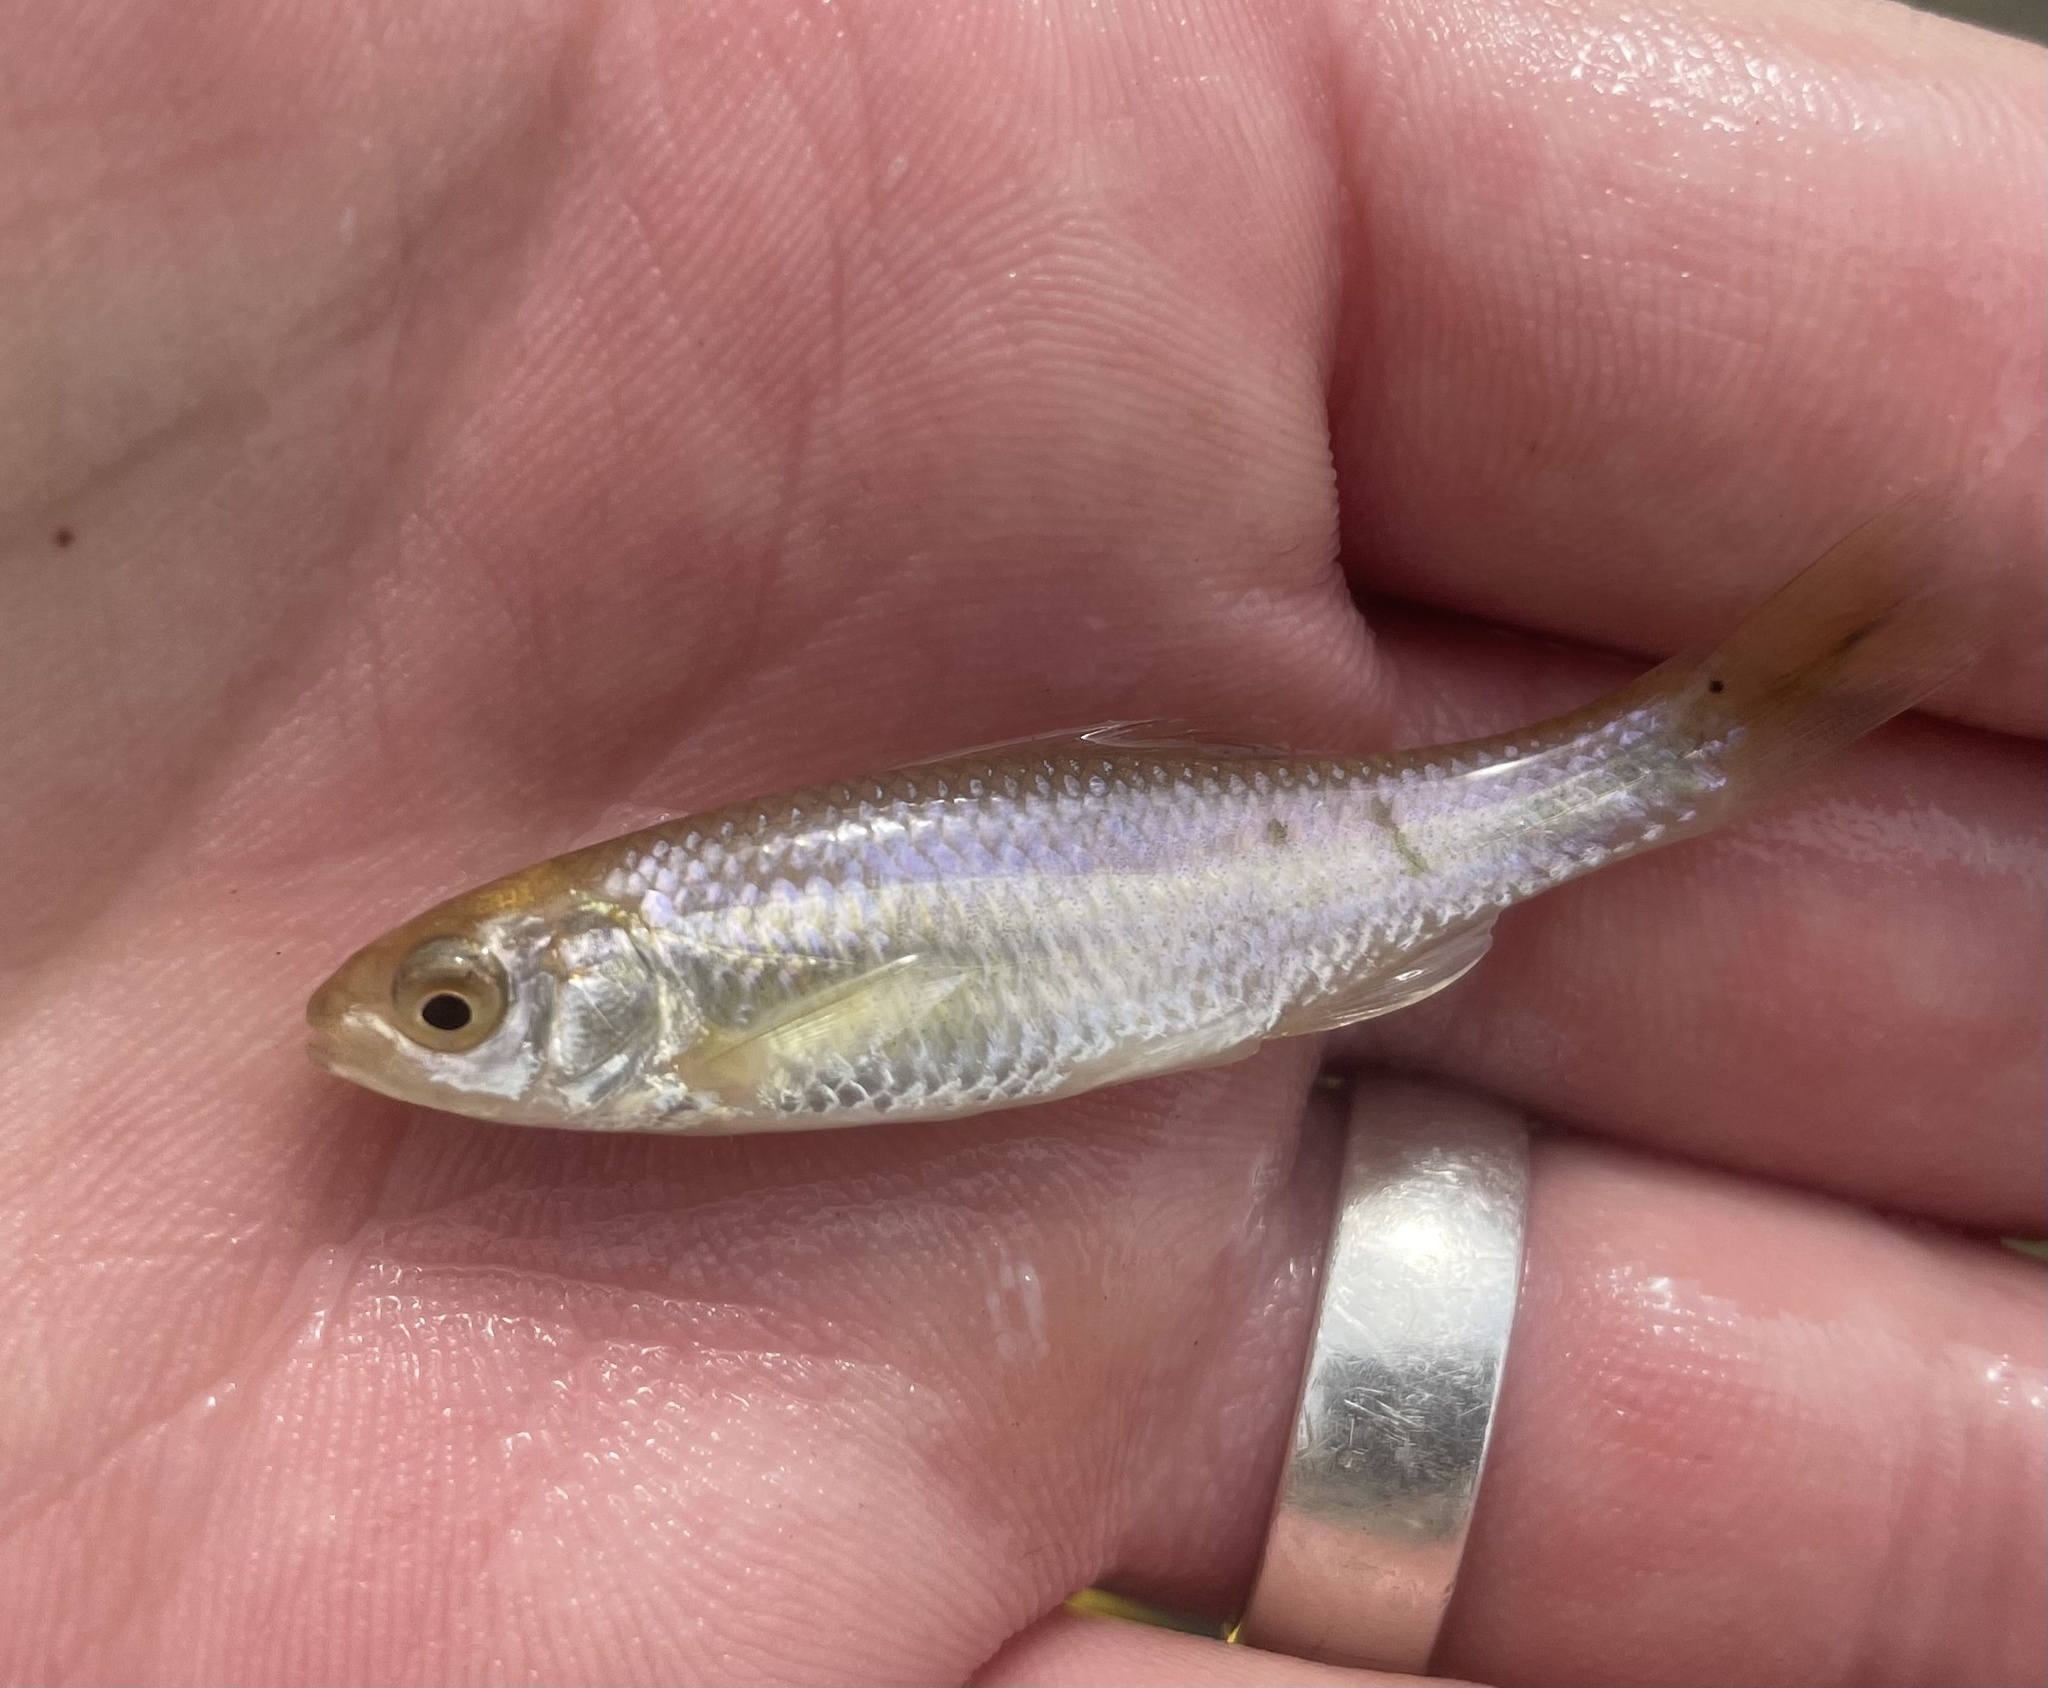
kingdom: Animalia
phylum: Chordata
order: Cypriniformes
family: Cyprinidae
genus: Cyprinella
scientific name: Cyprinella lutrensis
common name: Red shiner
